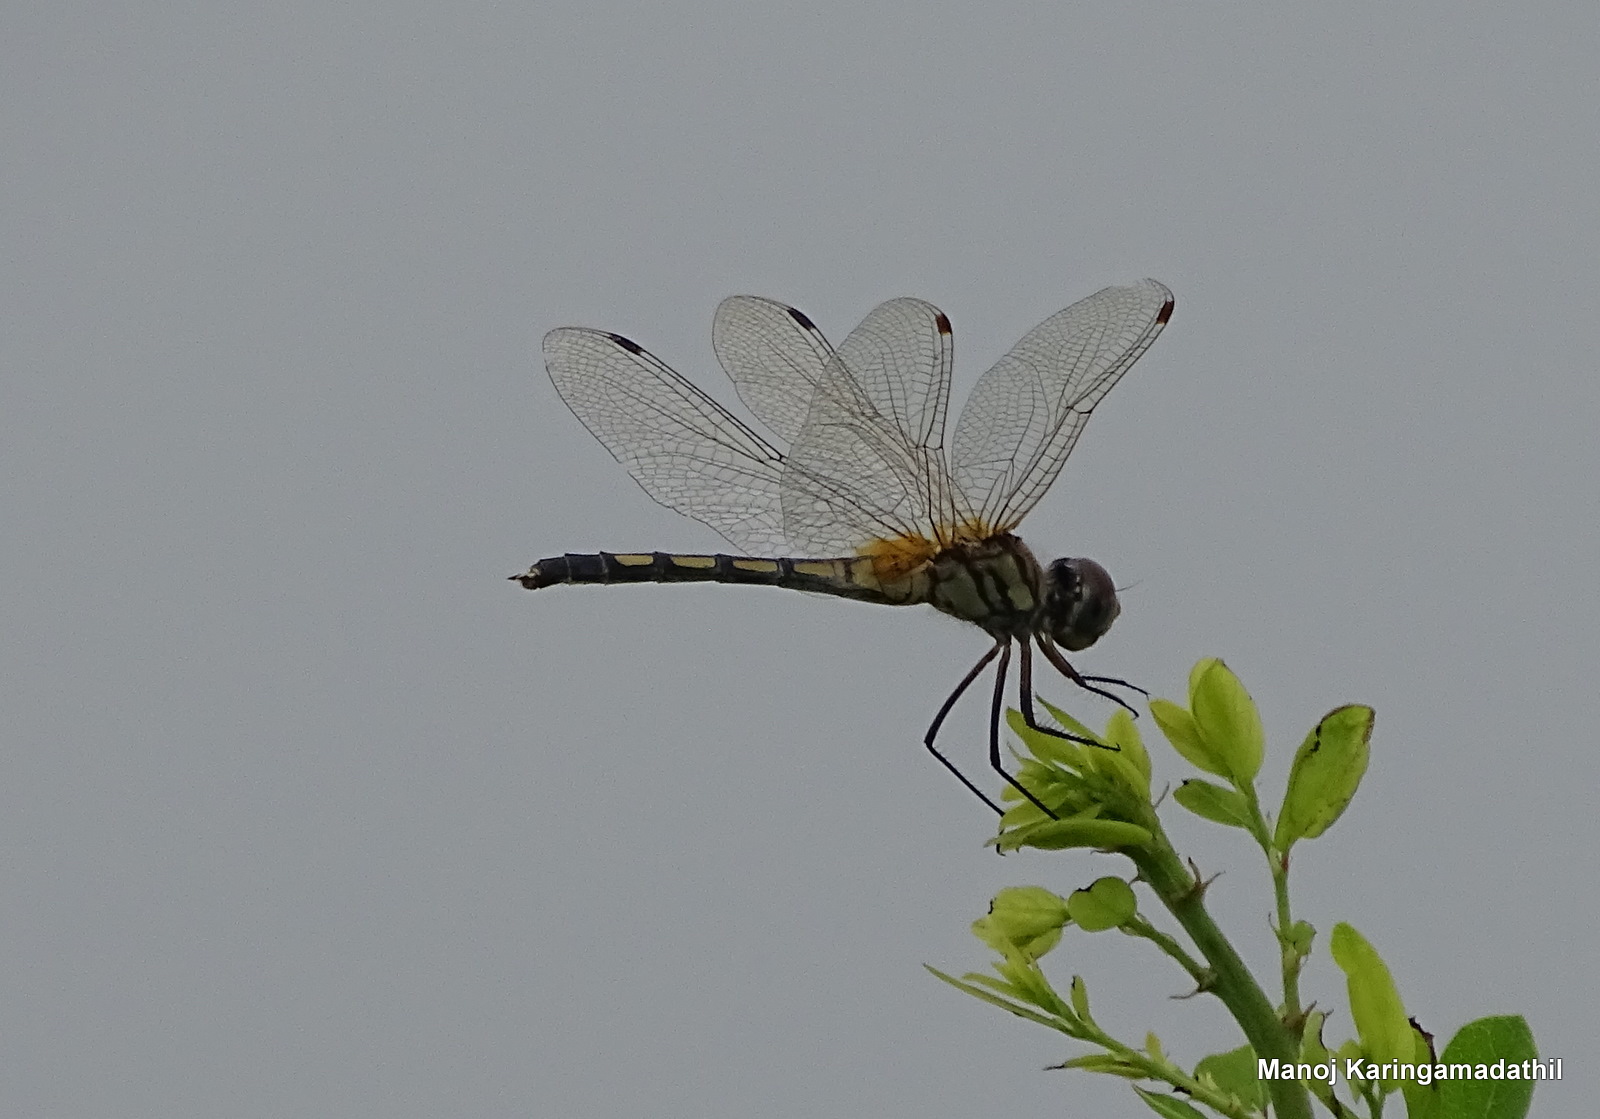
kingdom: Animalia
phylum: Arthropoda
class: Insecta
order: Odonata
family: Libellulidae
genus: Trithemis
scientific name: Trithemis pallidinervis
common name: Dancing dropwing
